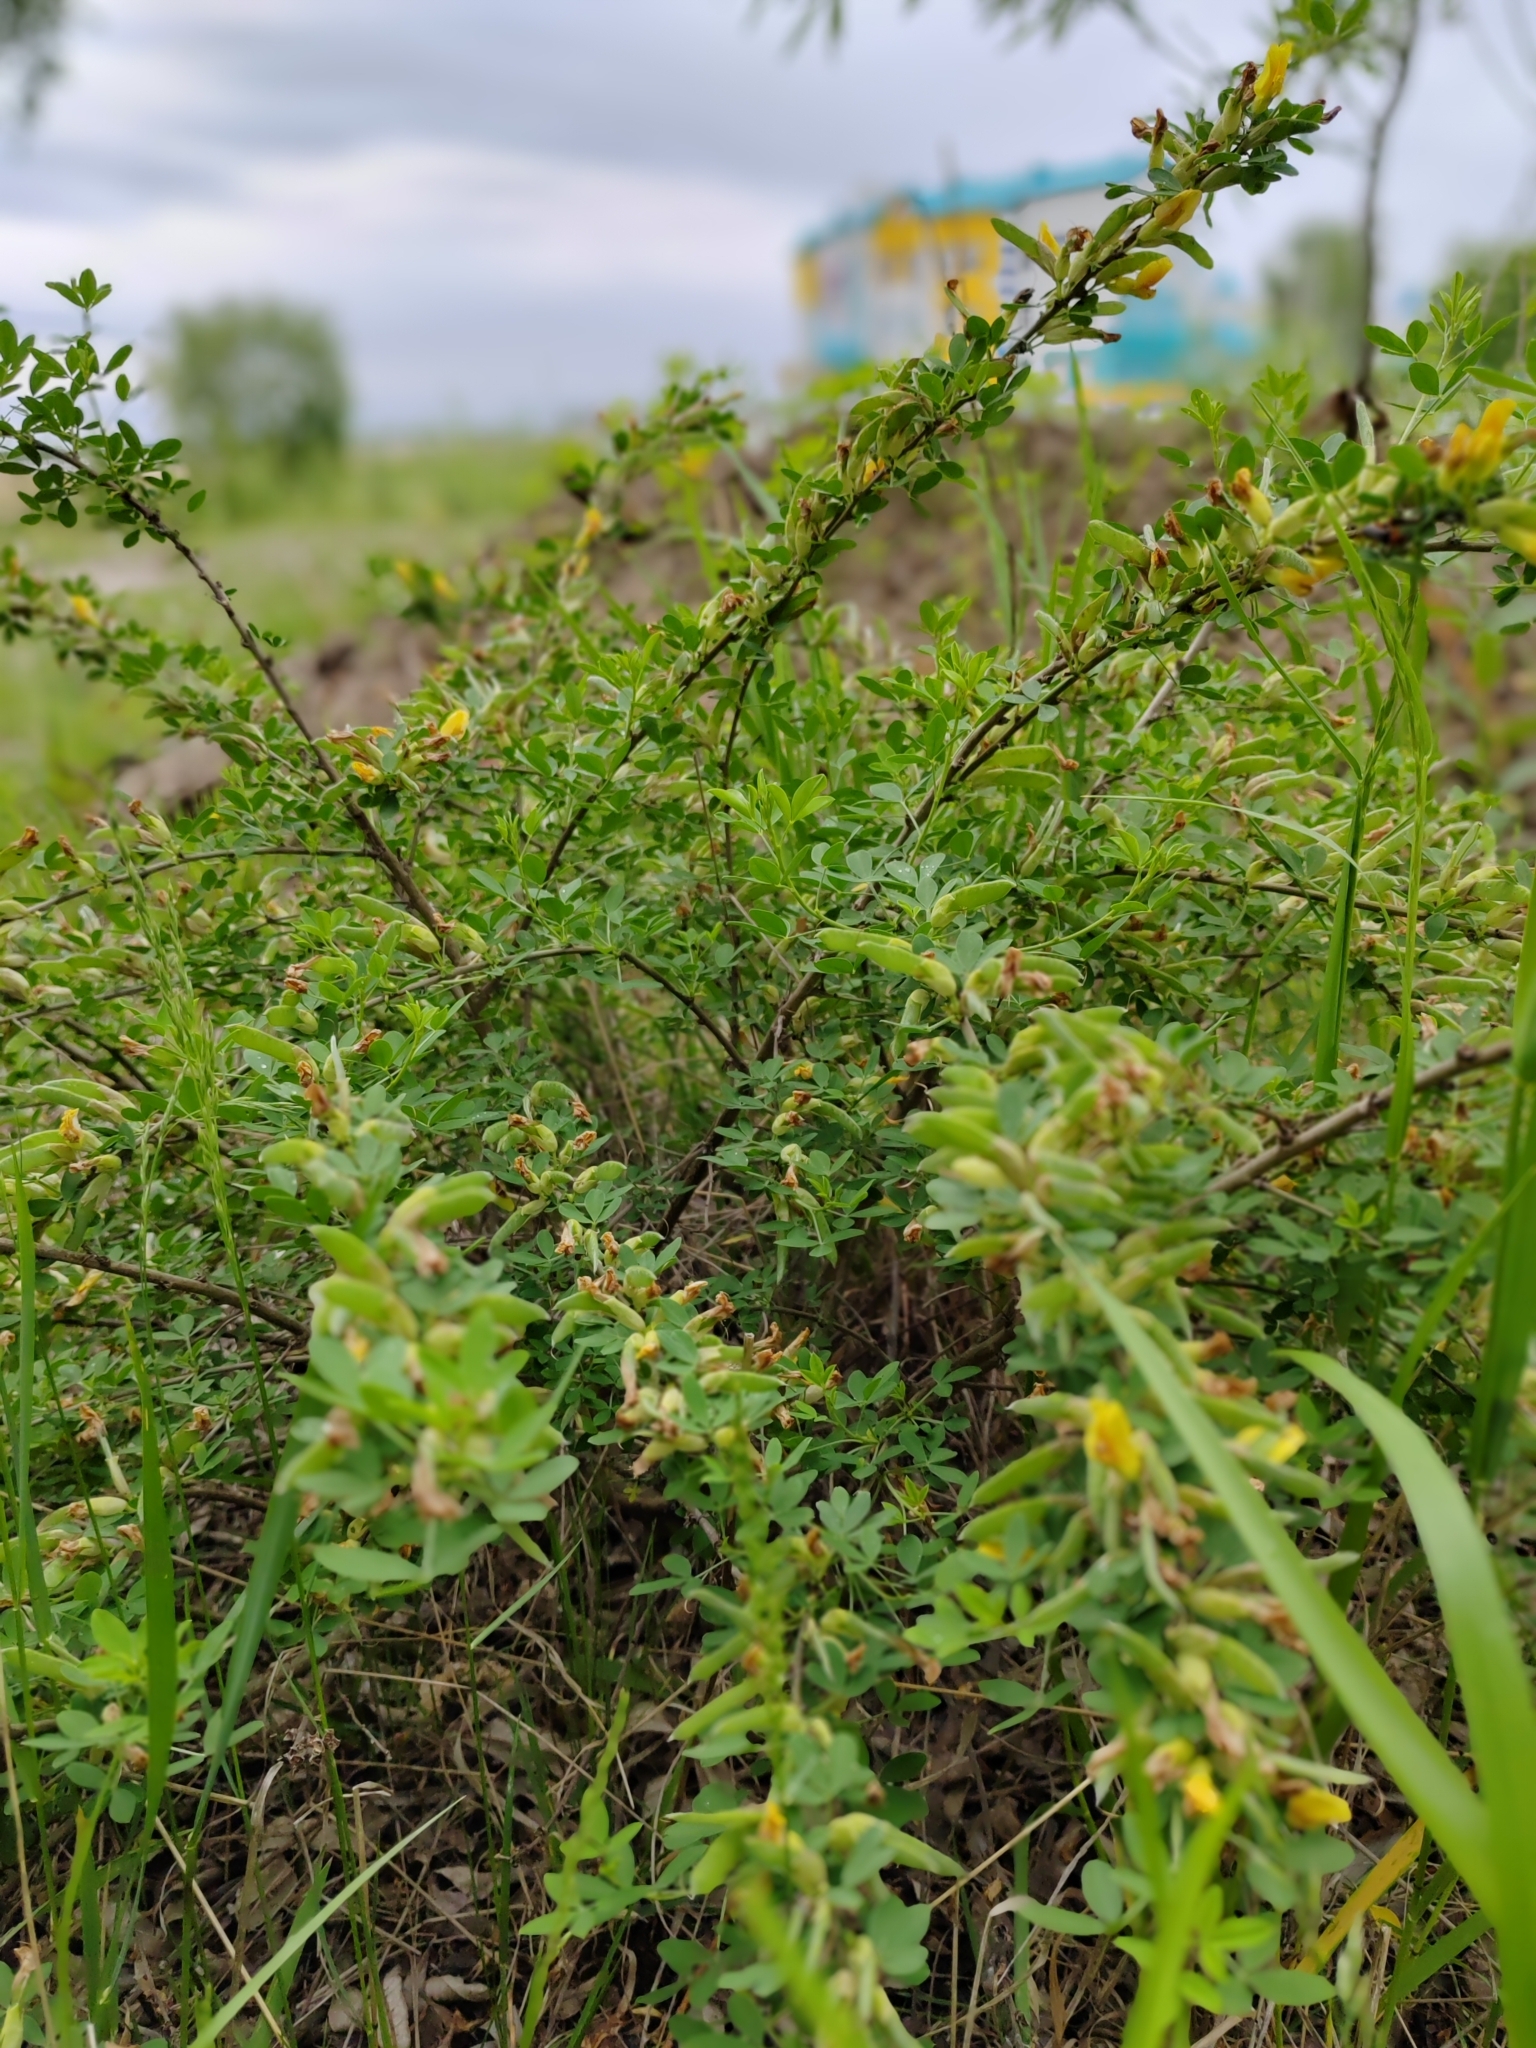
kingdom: Plantae
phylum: Tracheophyta
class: Magnoliopsida
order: Fabales
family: Fabaceae
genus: Chamaecytisus
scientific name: Chamaecytisus ruthenicus
